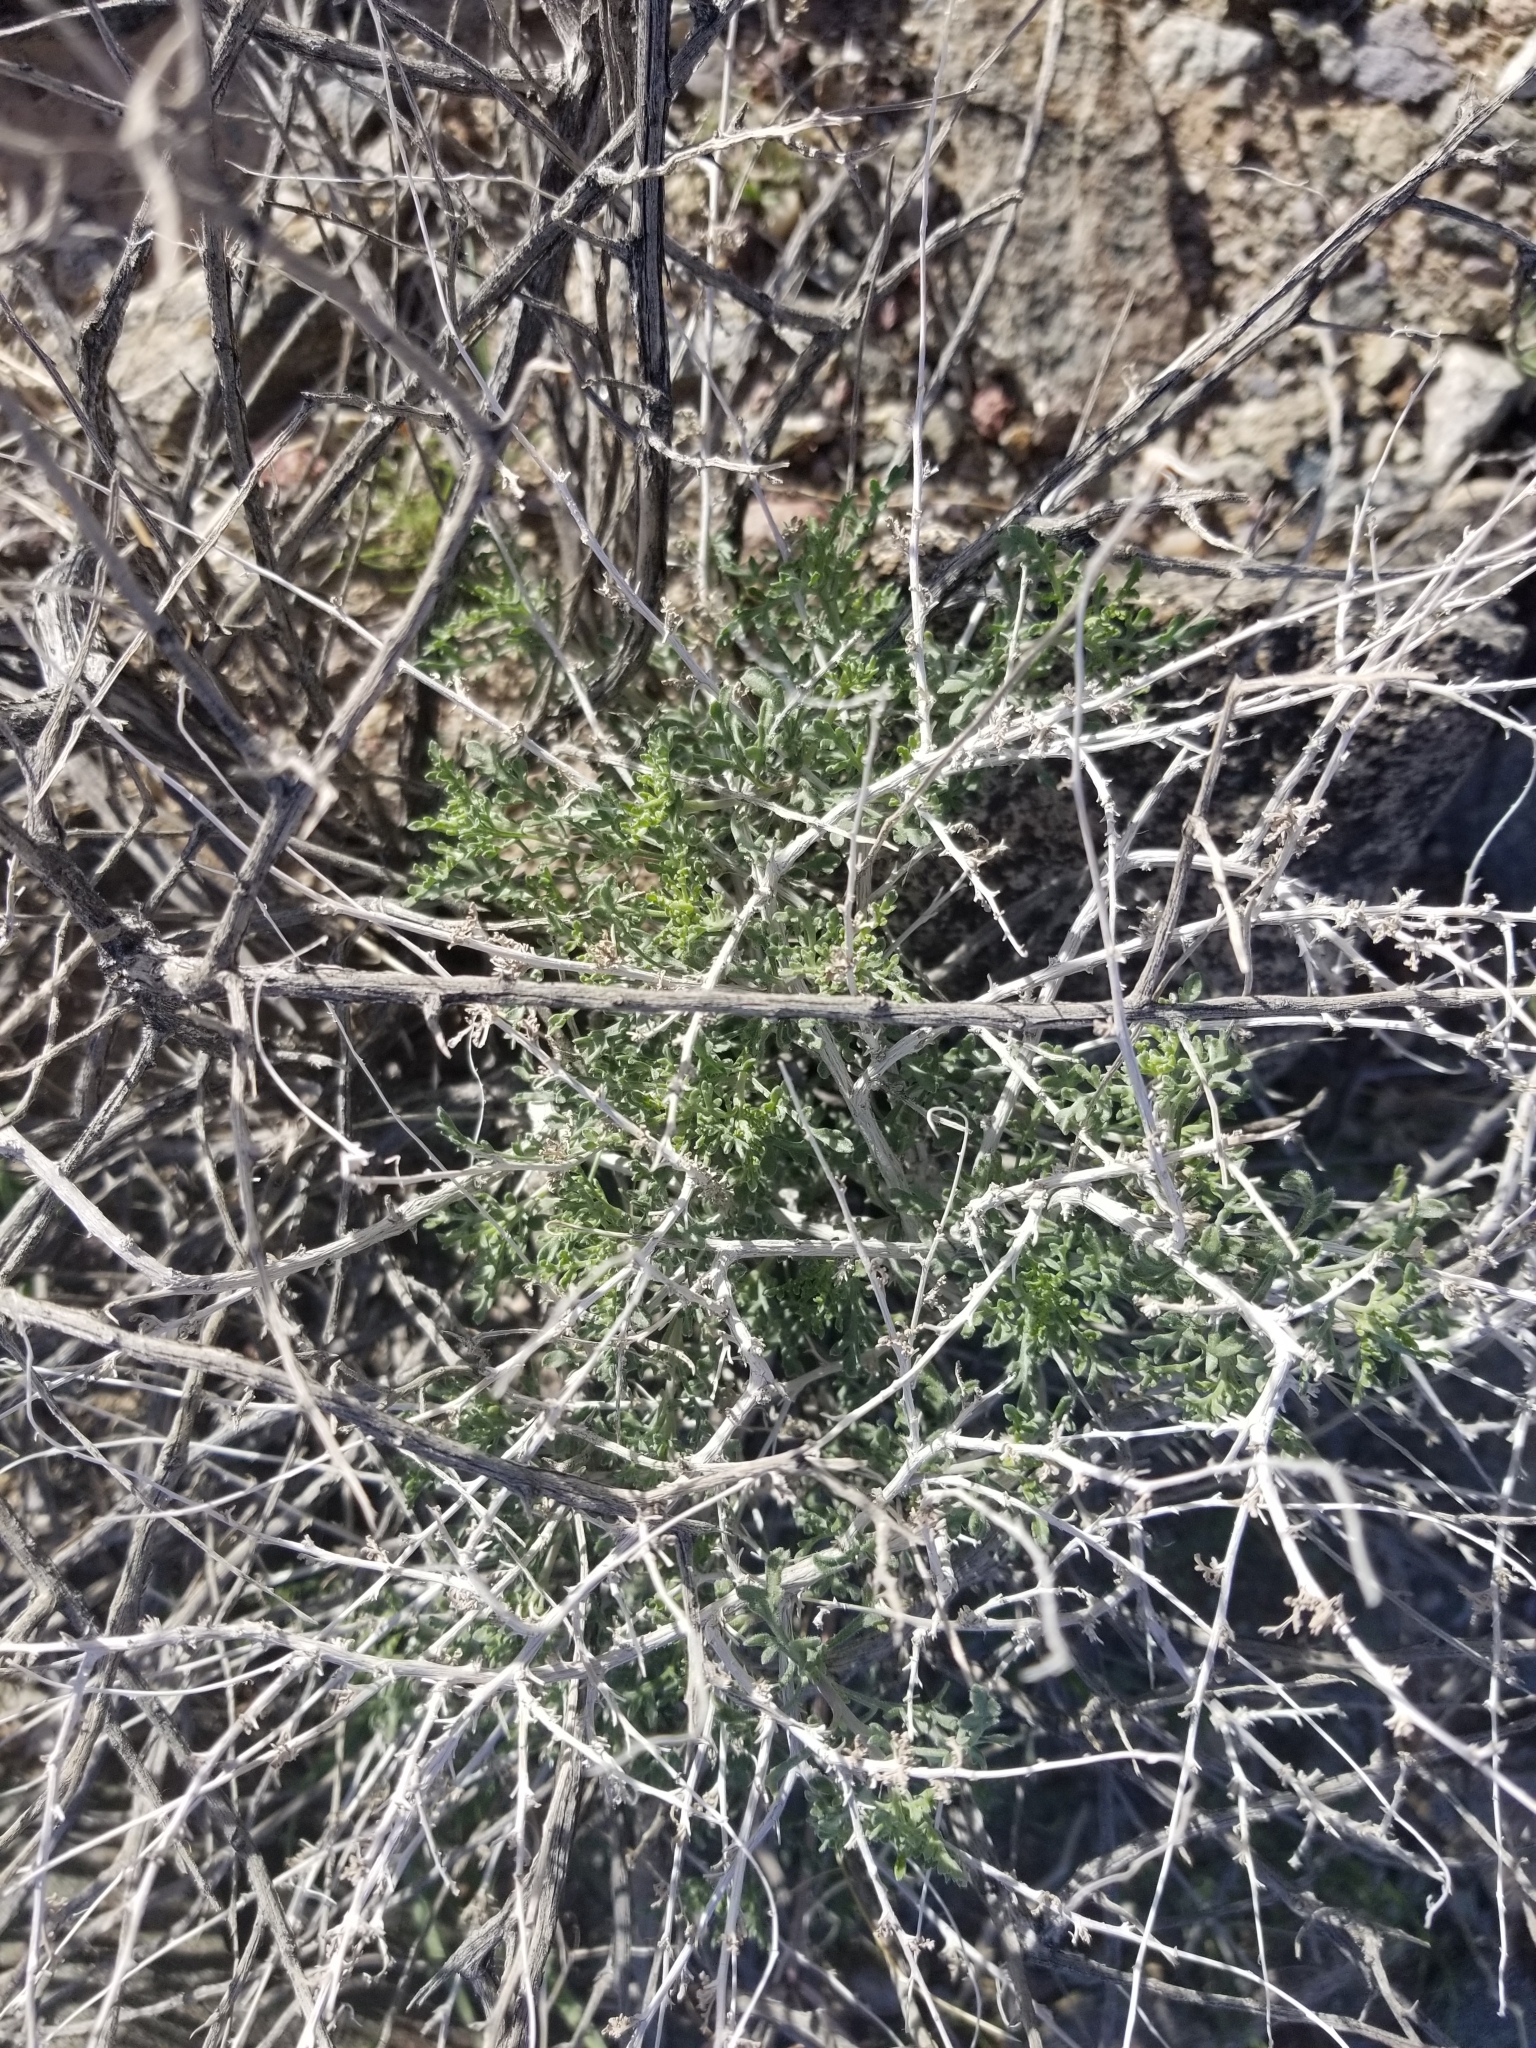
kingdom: Plantae
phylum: Tracheophyta
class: Magnoliopsida
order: Asterales
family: Asteraceae
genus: Ambrosia
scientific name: Ambrosia dumosa
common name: Bur-sage
